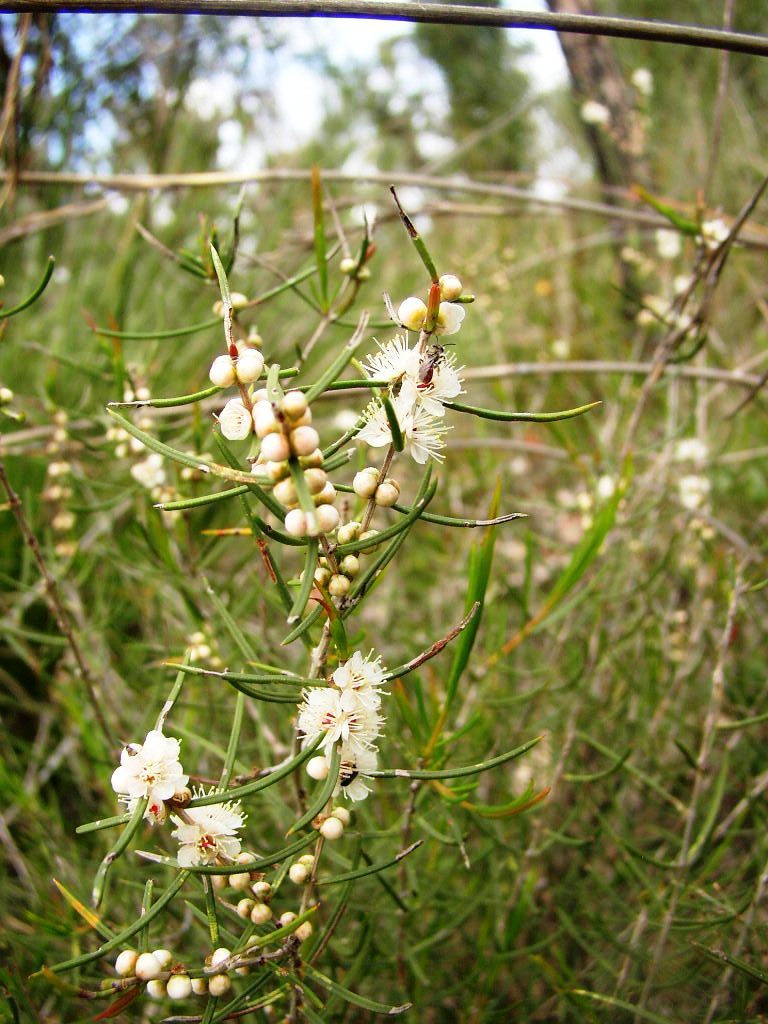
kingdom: Plantae
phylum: Tracheophyta
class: Magnoliopsida
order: Myrtales
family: Myrtaceae
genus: Hypocalymma
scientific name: Hypocalymma angustifolium
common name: White myrtle
